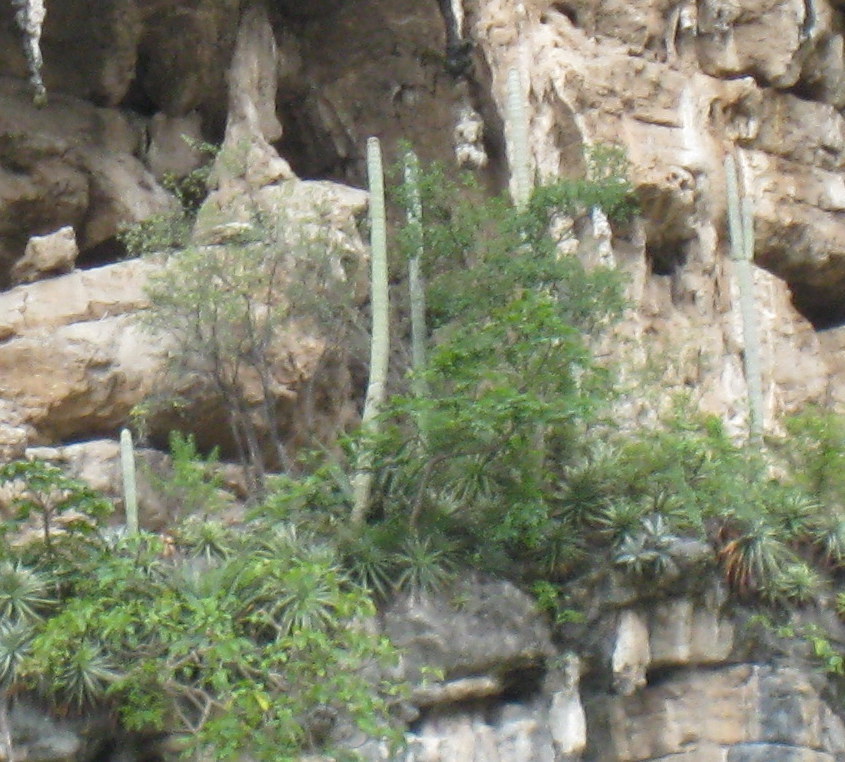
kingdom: Plantae
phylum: Tracheophyta
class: Magnoliopsida
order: Caryophyllales
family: Cactaceae
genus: Cephalocereus
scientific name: Cephalocereus apicicephalium
